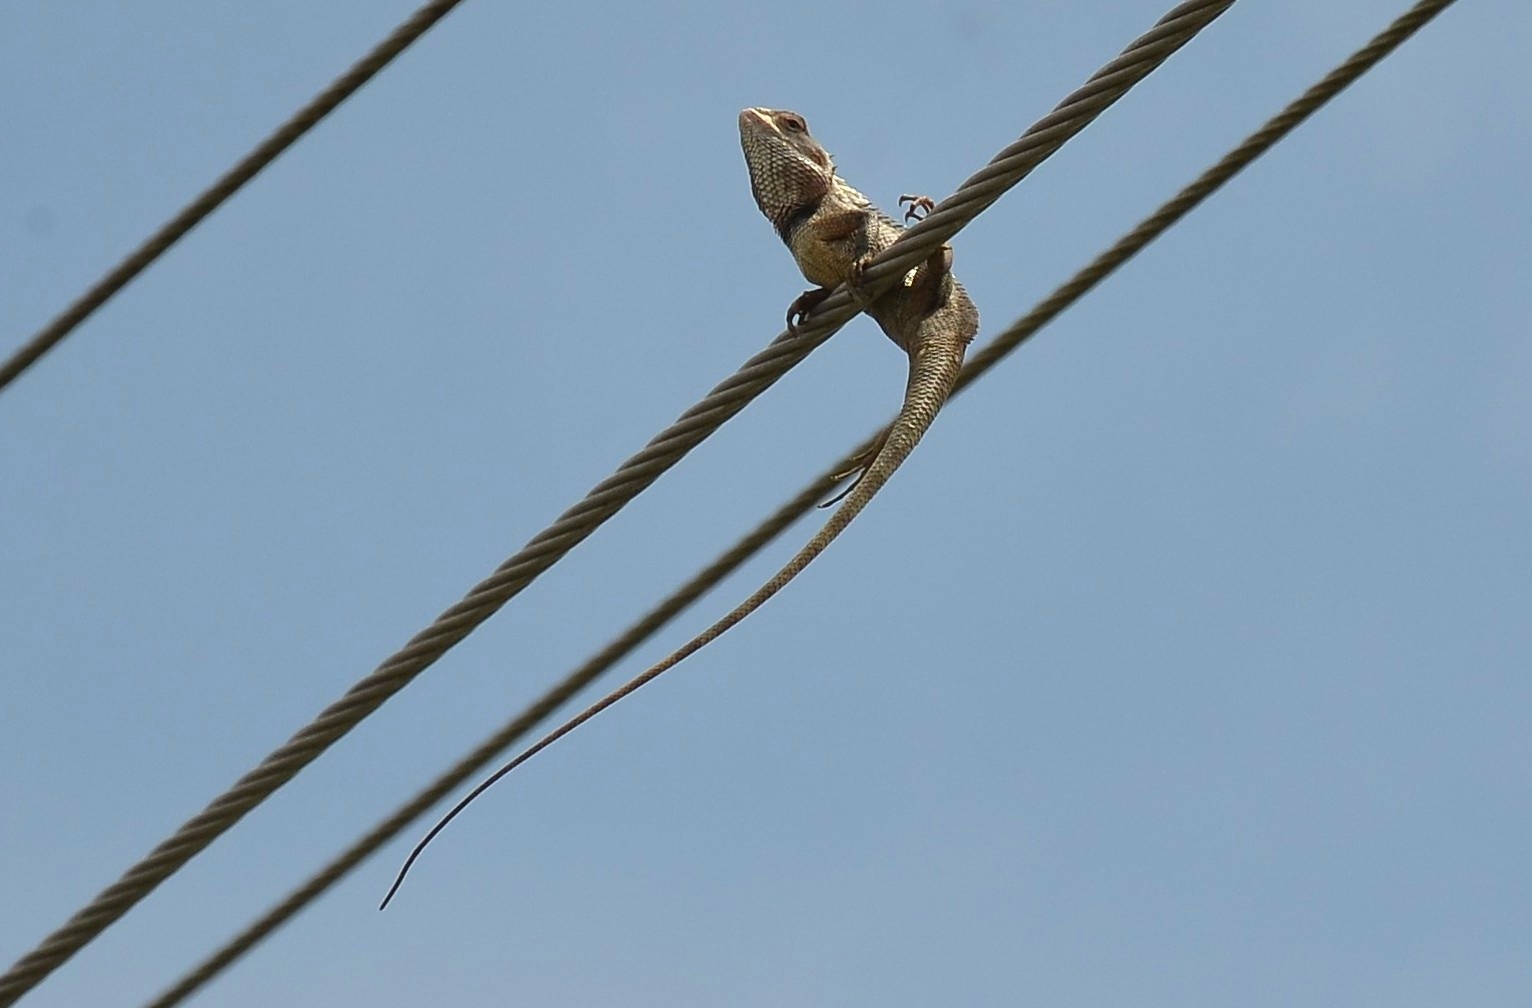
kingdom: Animalia
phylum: Chordata
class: Squamata
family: Agamidae
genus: Calotes
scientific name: Calotes versicolor
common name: Oriental garden lizard
